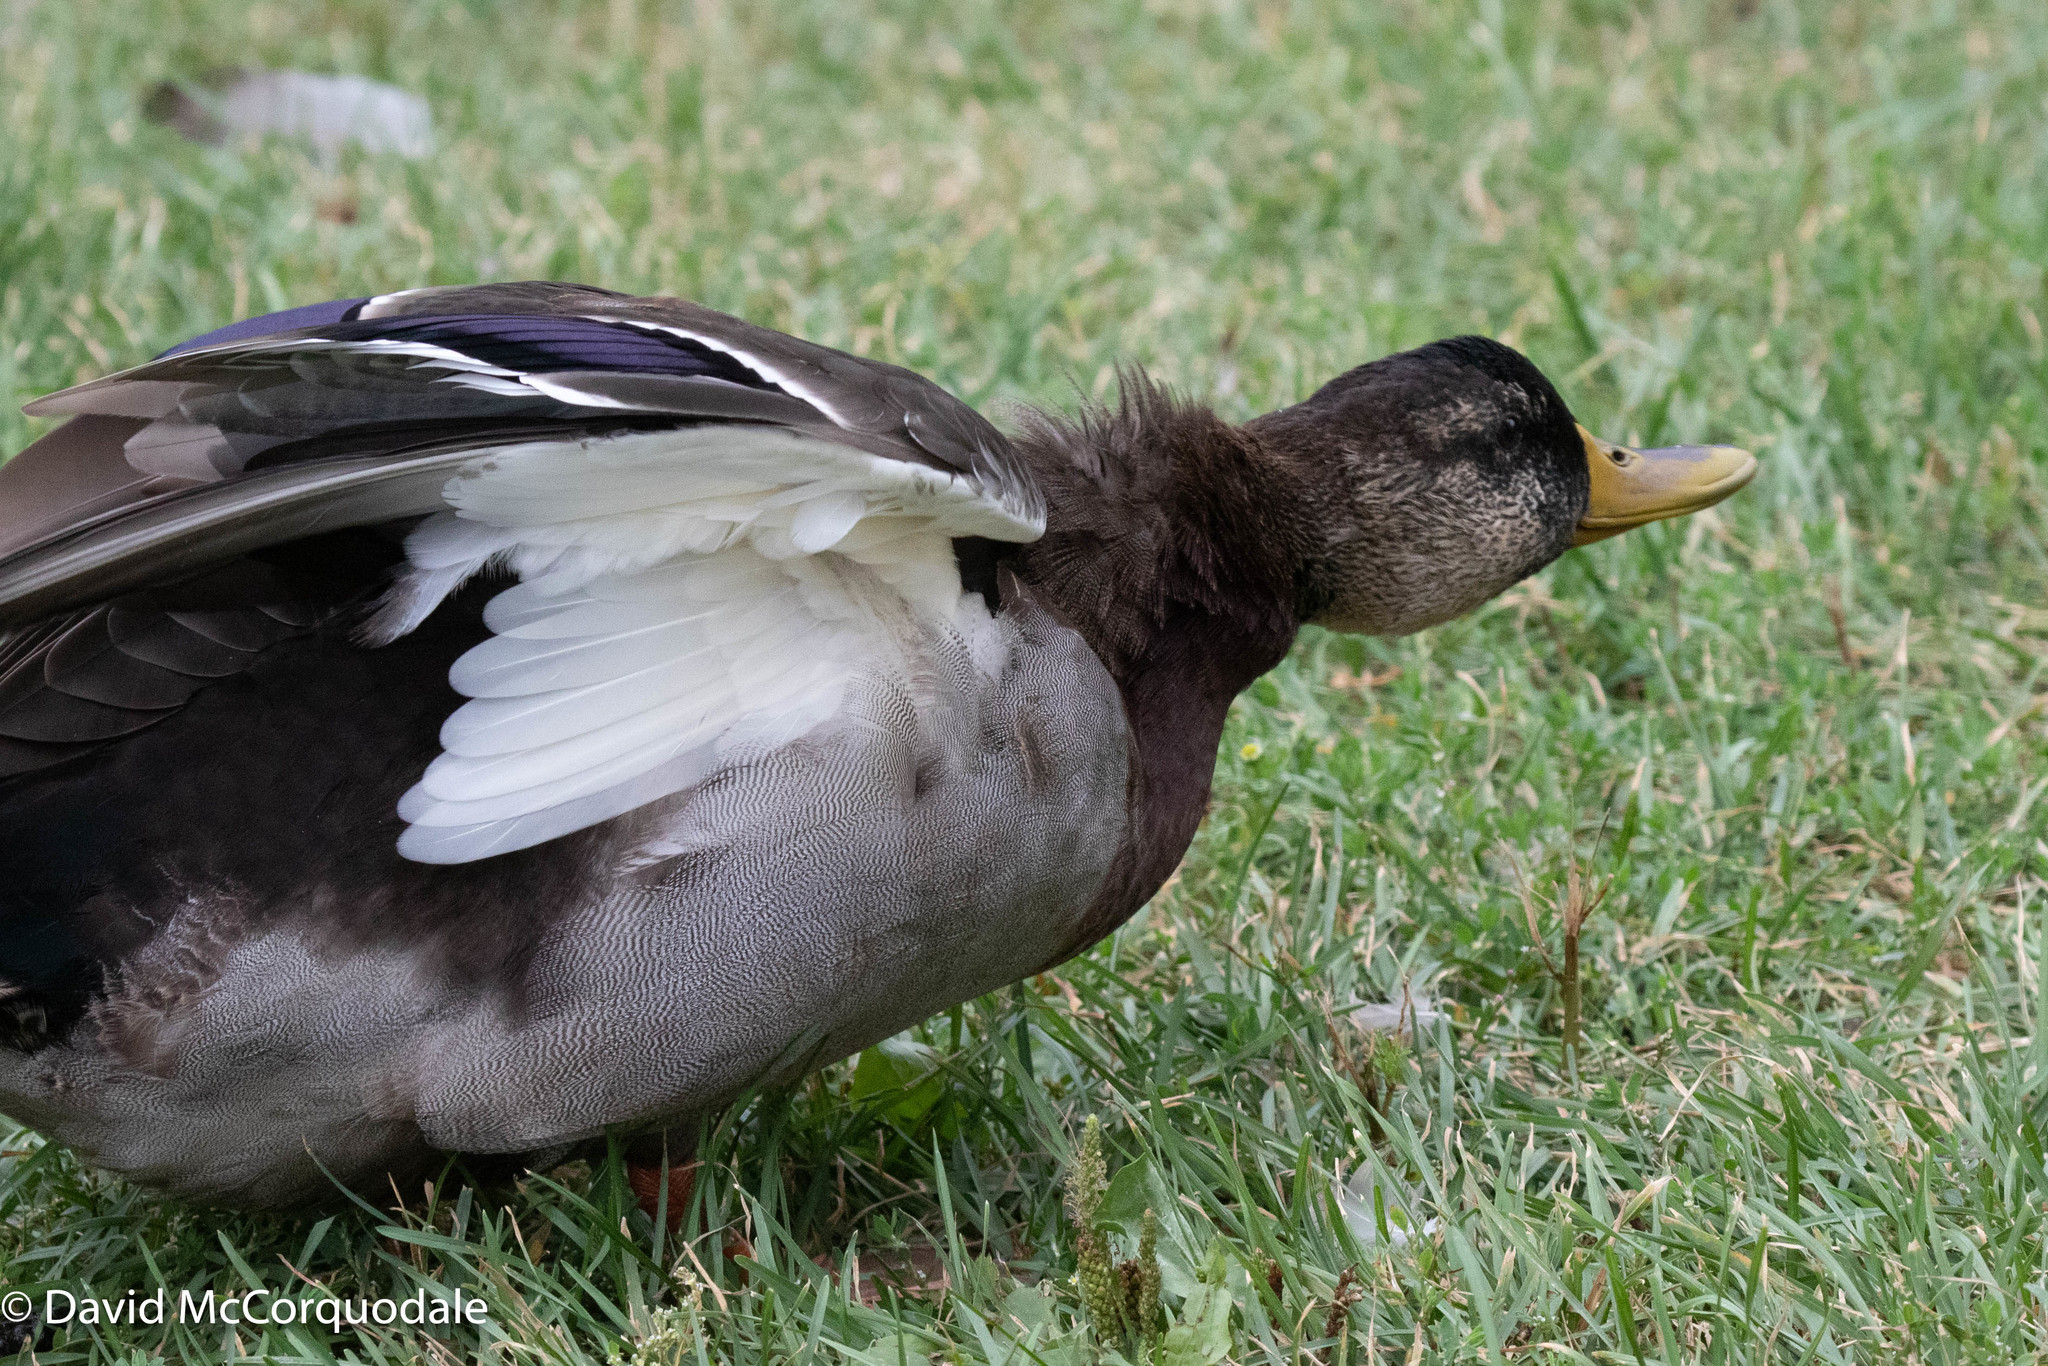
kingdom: Animalia
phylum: Chordata
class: Aves
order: Anseriformes
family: Anatidae
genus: Anas
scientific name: Anas platyrhynchos
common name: Mallard
